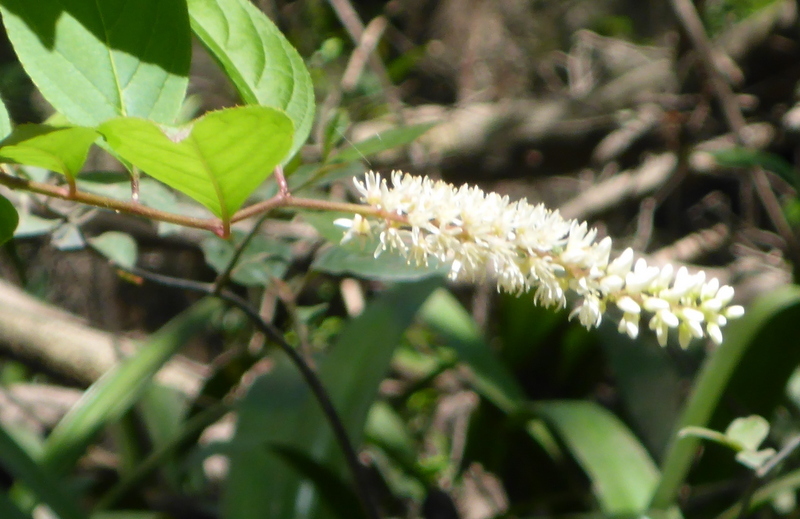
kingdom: Plantae
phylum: Tracheophyta
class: Magnoliopsida
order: Saxifragales
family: Iteaceae
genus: Itea
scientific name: Itea virginica
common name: Sweetspire
